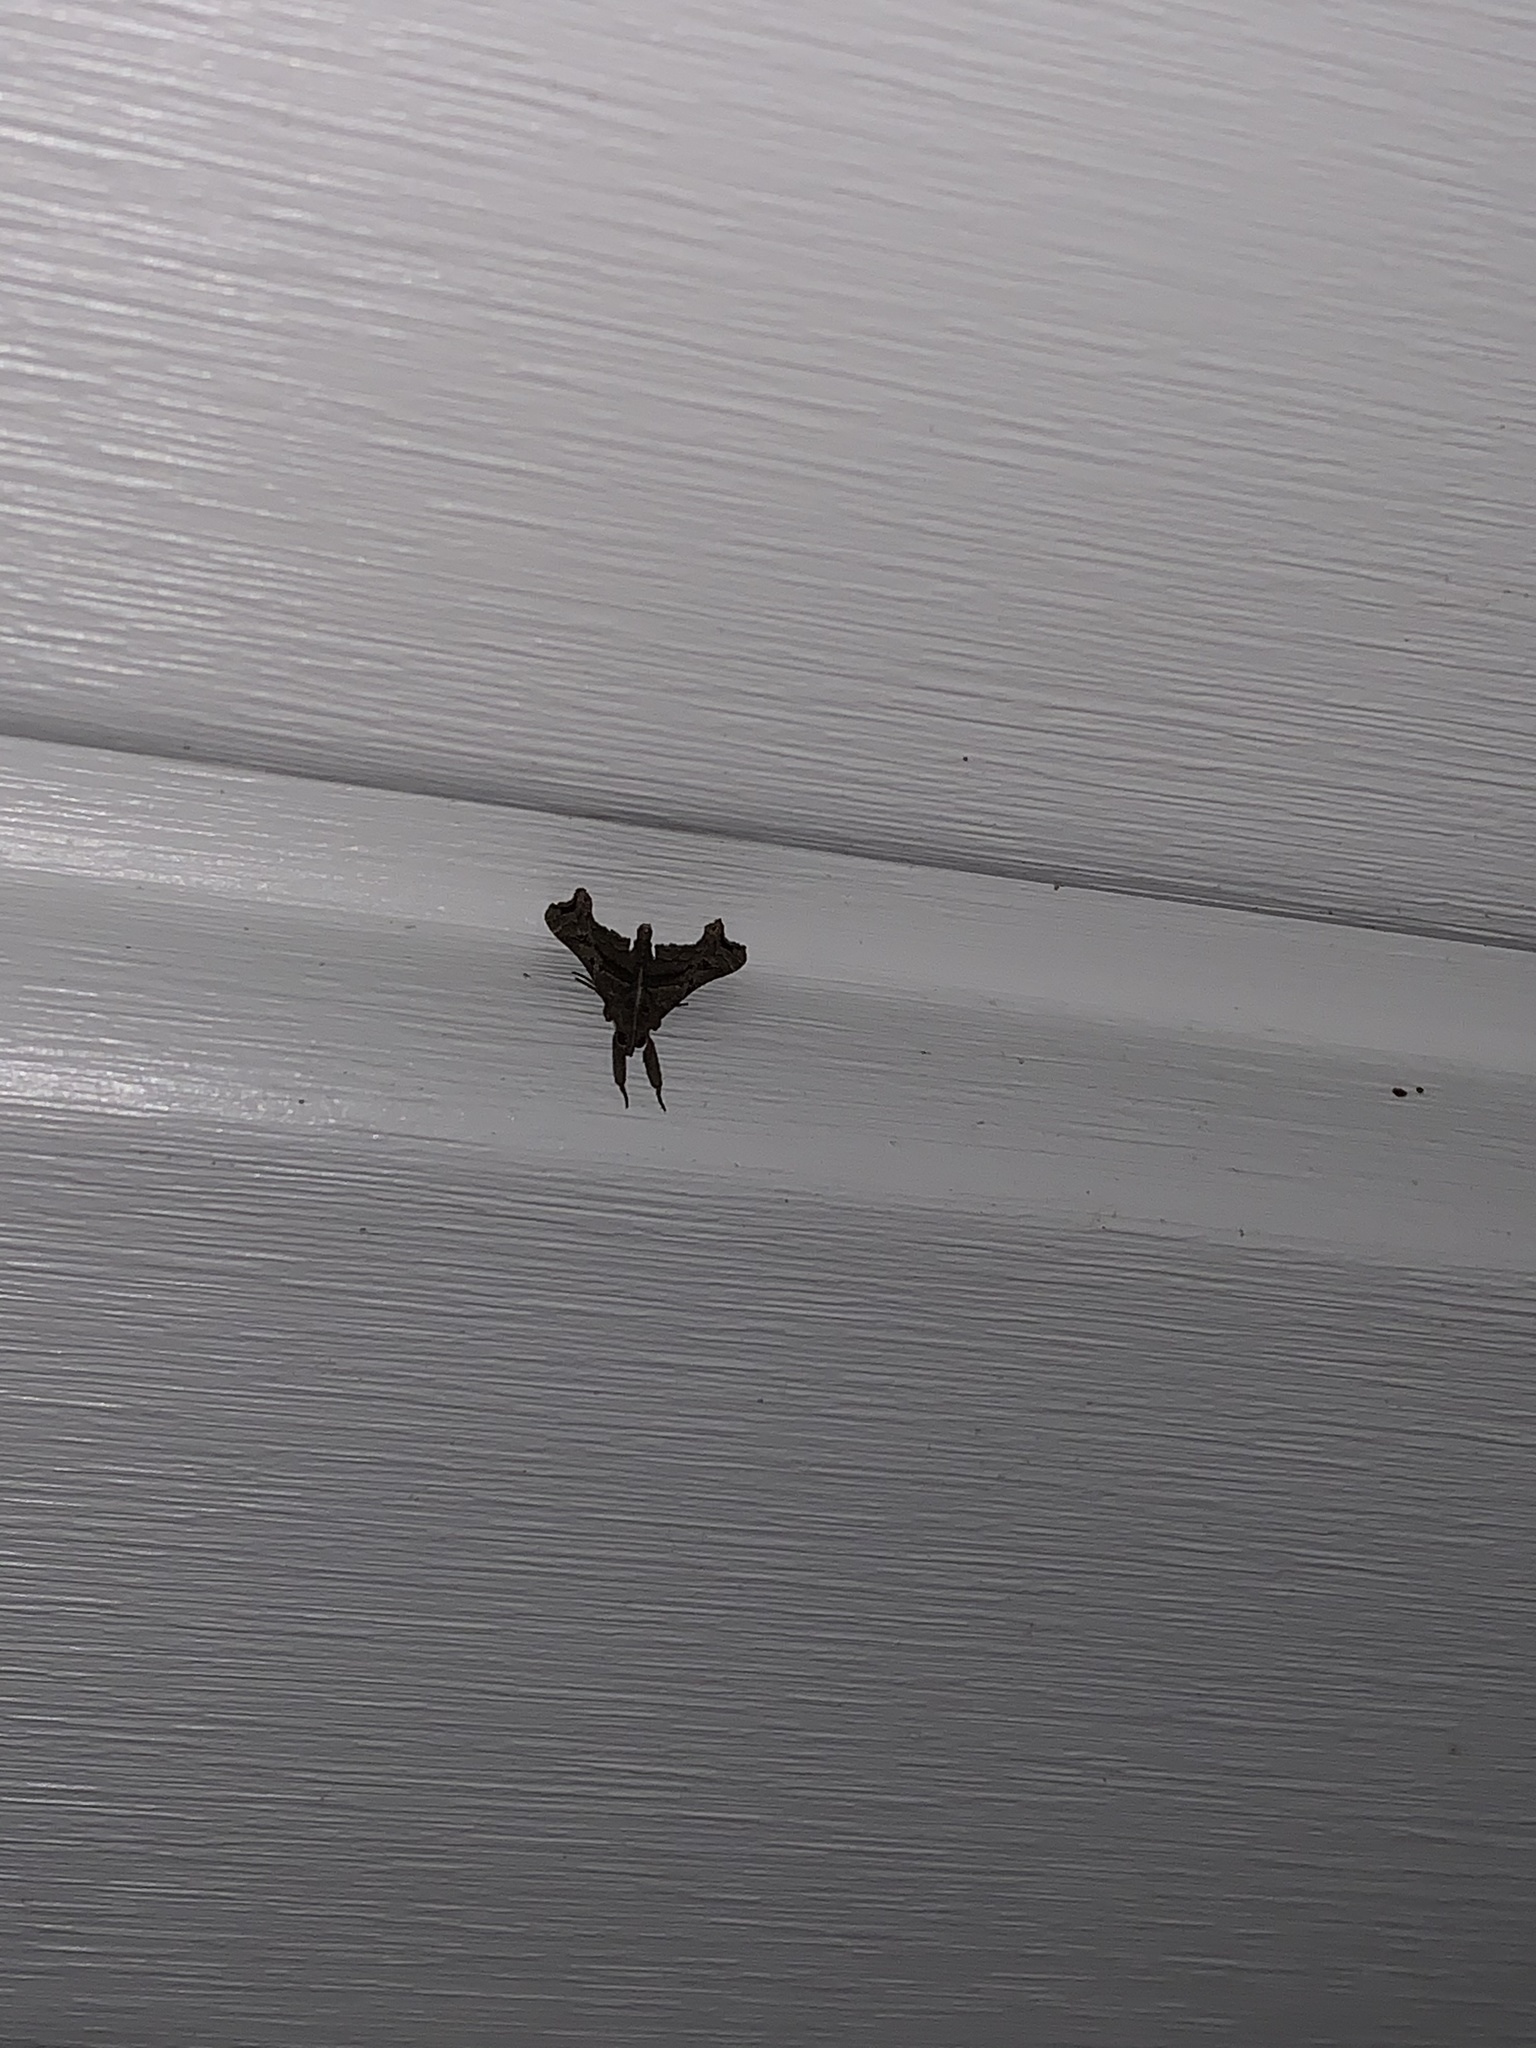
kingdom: Animalia
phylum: Arthropoda
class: Insecta
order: Lepidoptera
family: Erebidae
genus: Palthis
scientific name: Palthis asopialis
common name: Faint-spotted palthis moth
